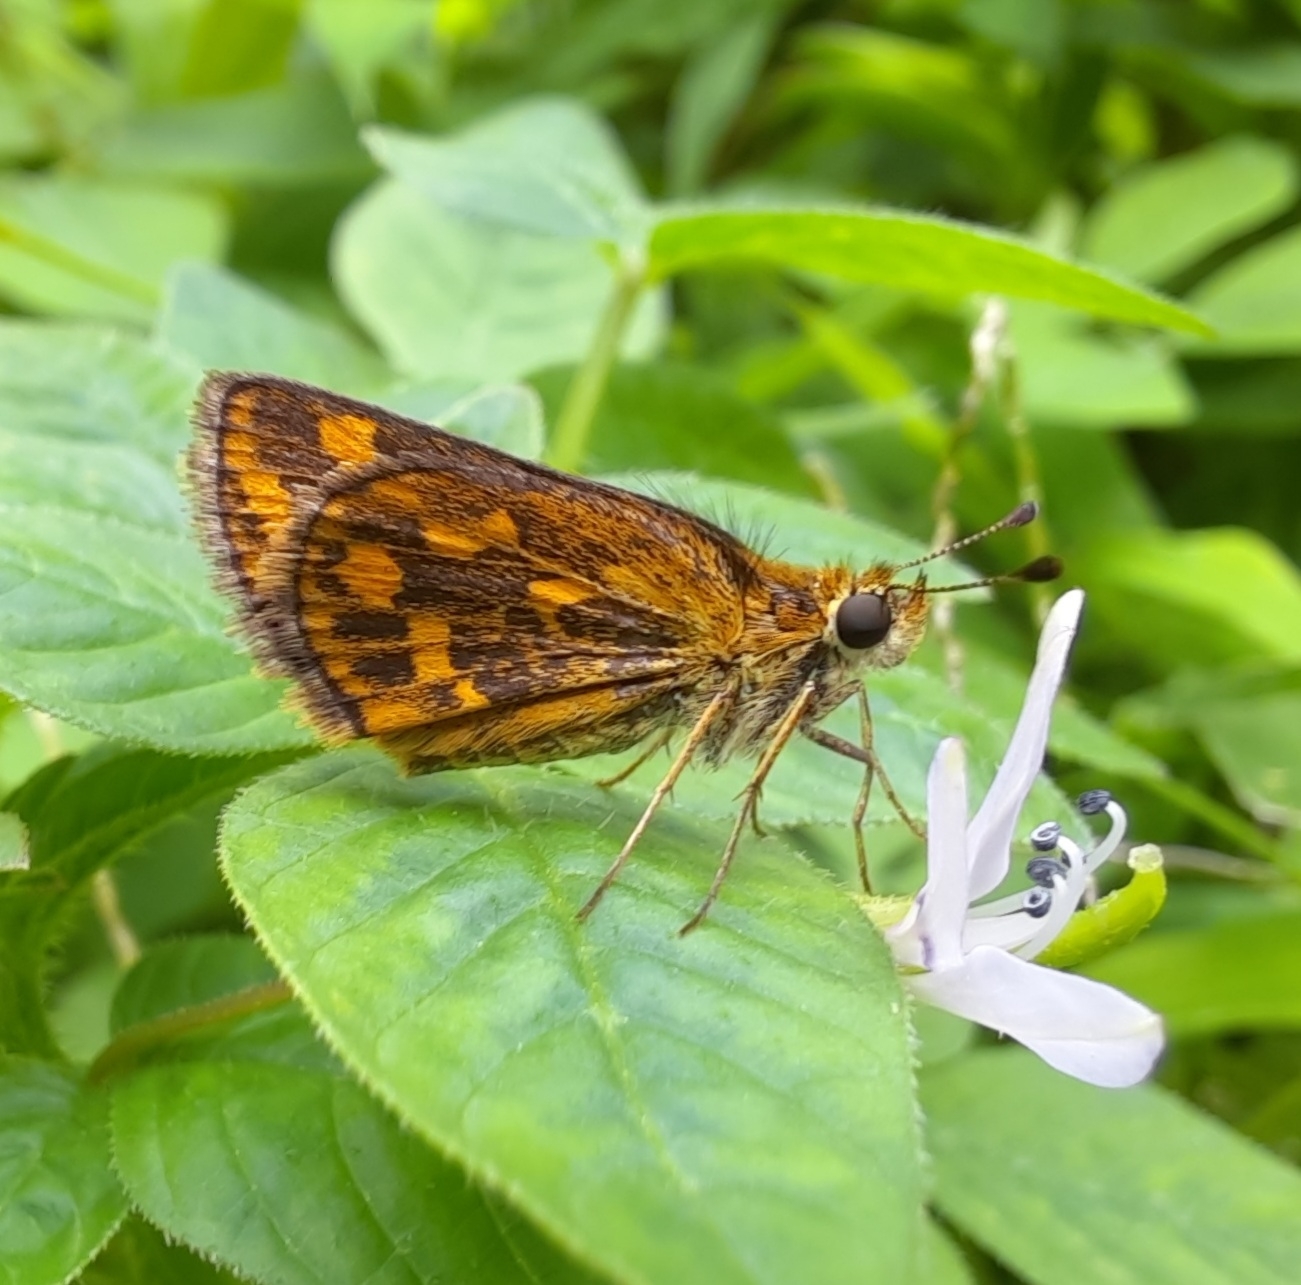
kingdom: Animalia
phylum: Arthropoda
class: Insecta
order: Lepidoptera
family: Hesperiidae
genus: Taractrocera
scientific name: Taractrocera ceramas
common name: Tamil grass dart
